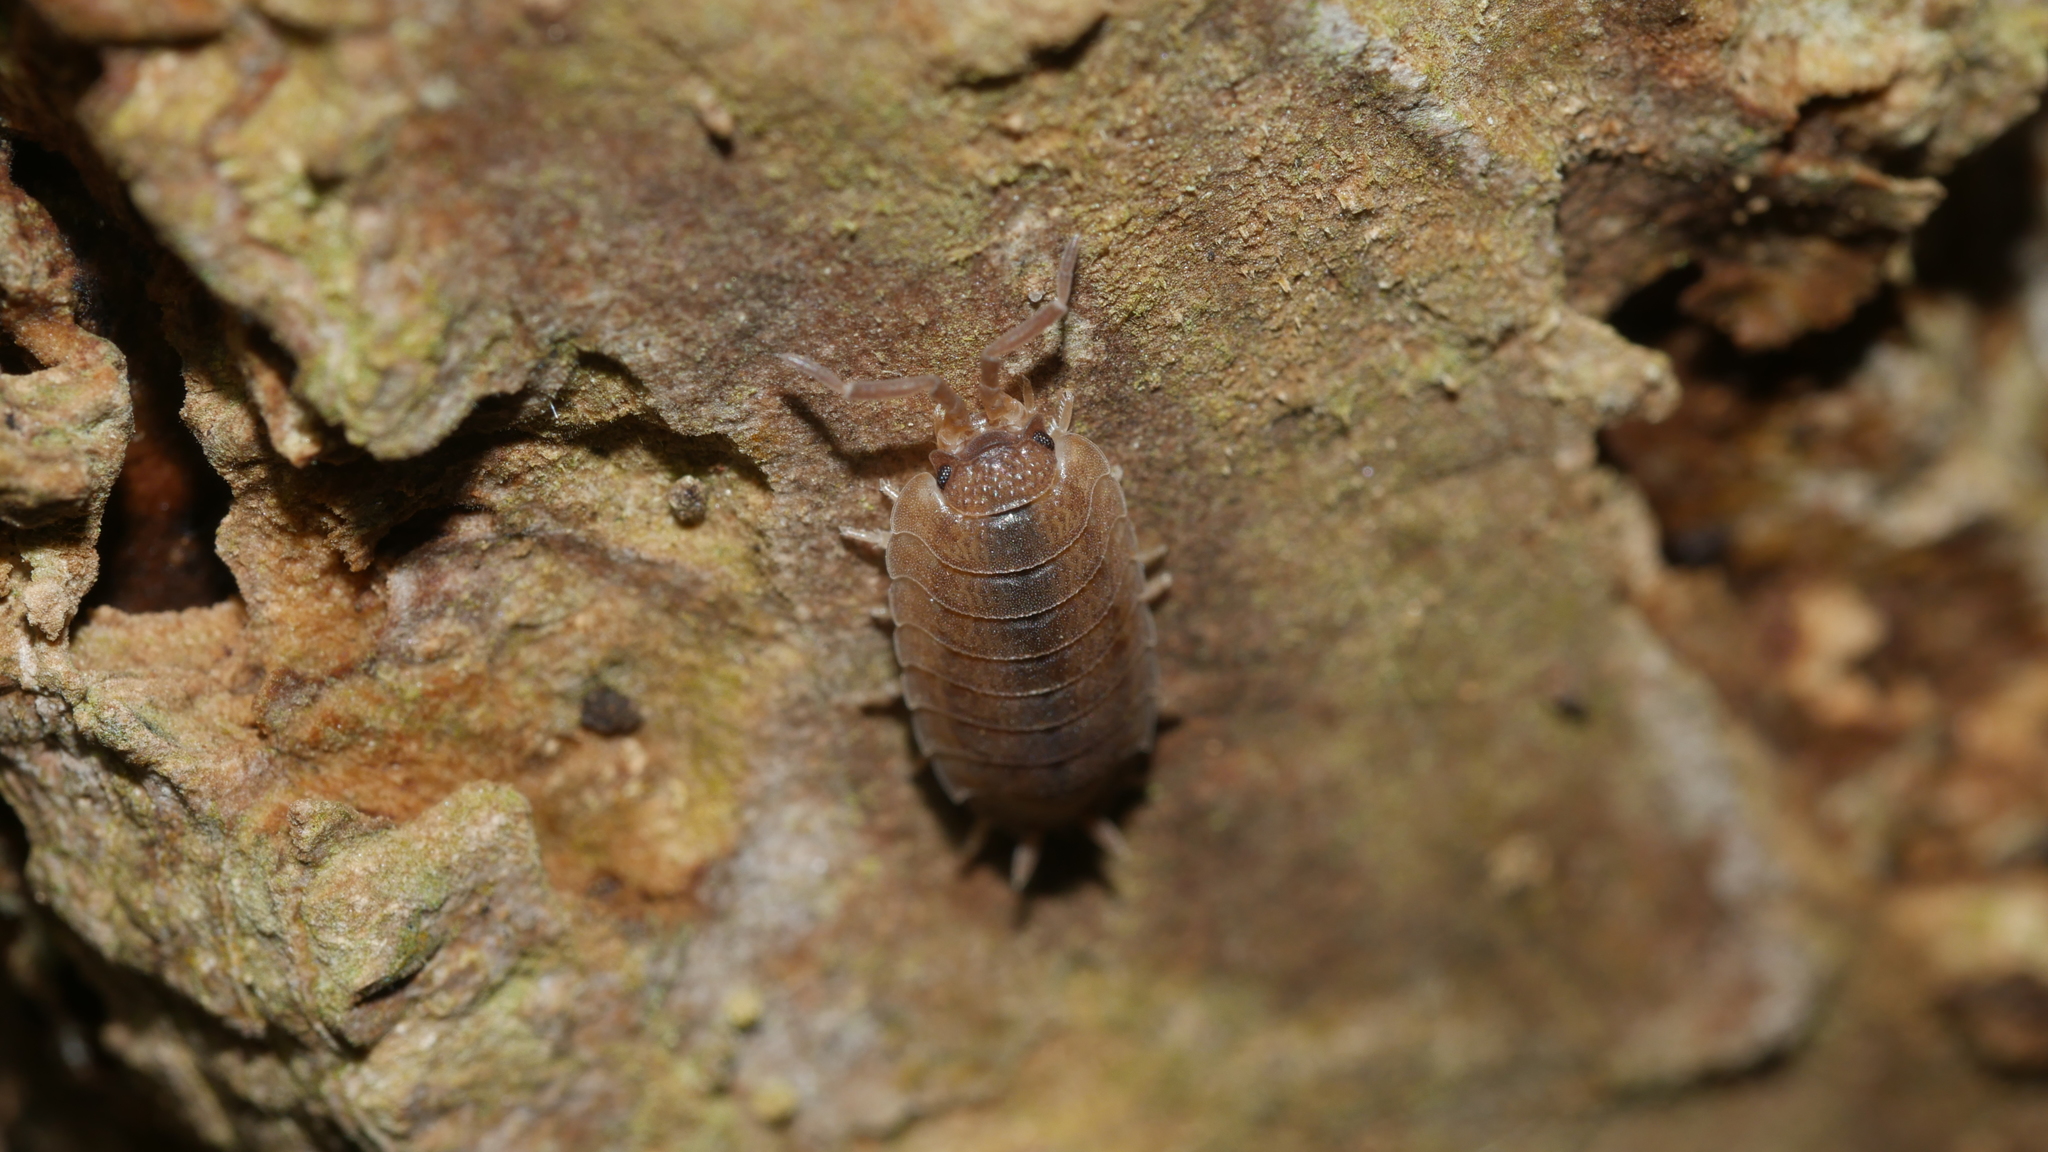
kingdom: Animalia
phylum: Arthropoda
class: Malacostraca
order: Isopoda
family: Porcellionidae
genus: Porcellio
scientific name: Porcellio scaber
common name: Common rough woodlouse
